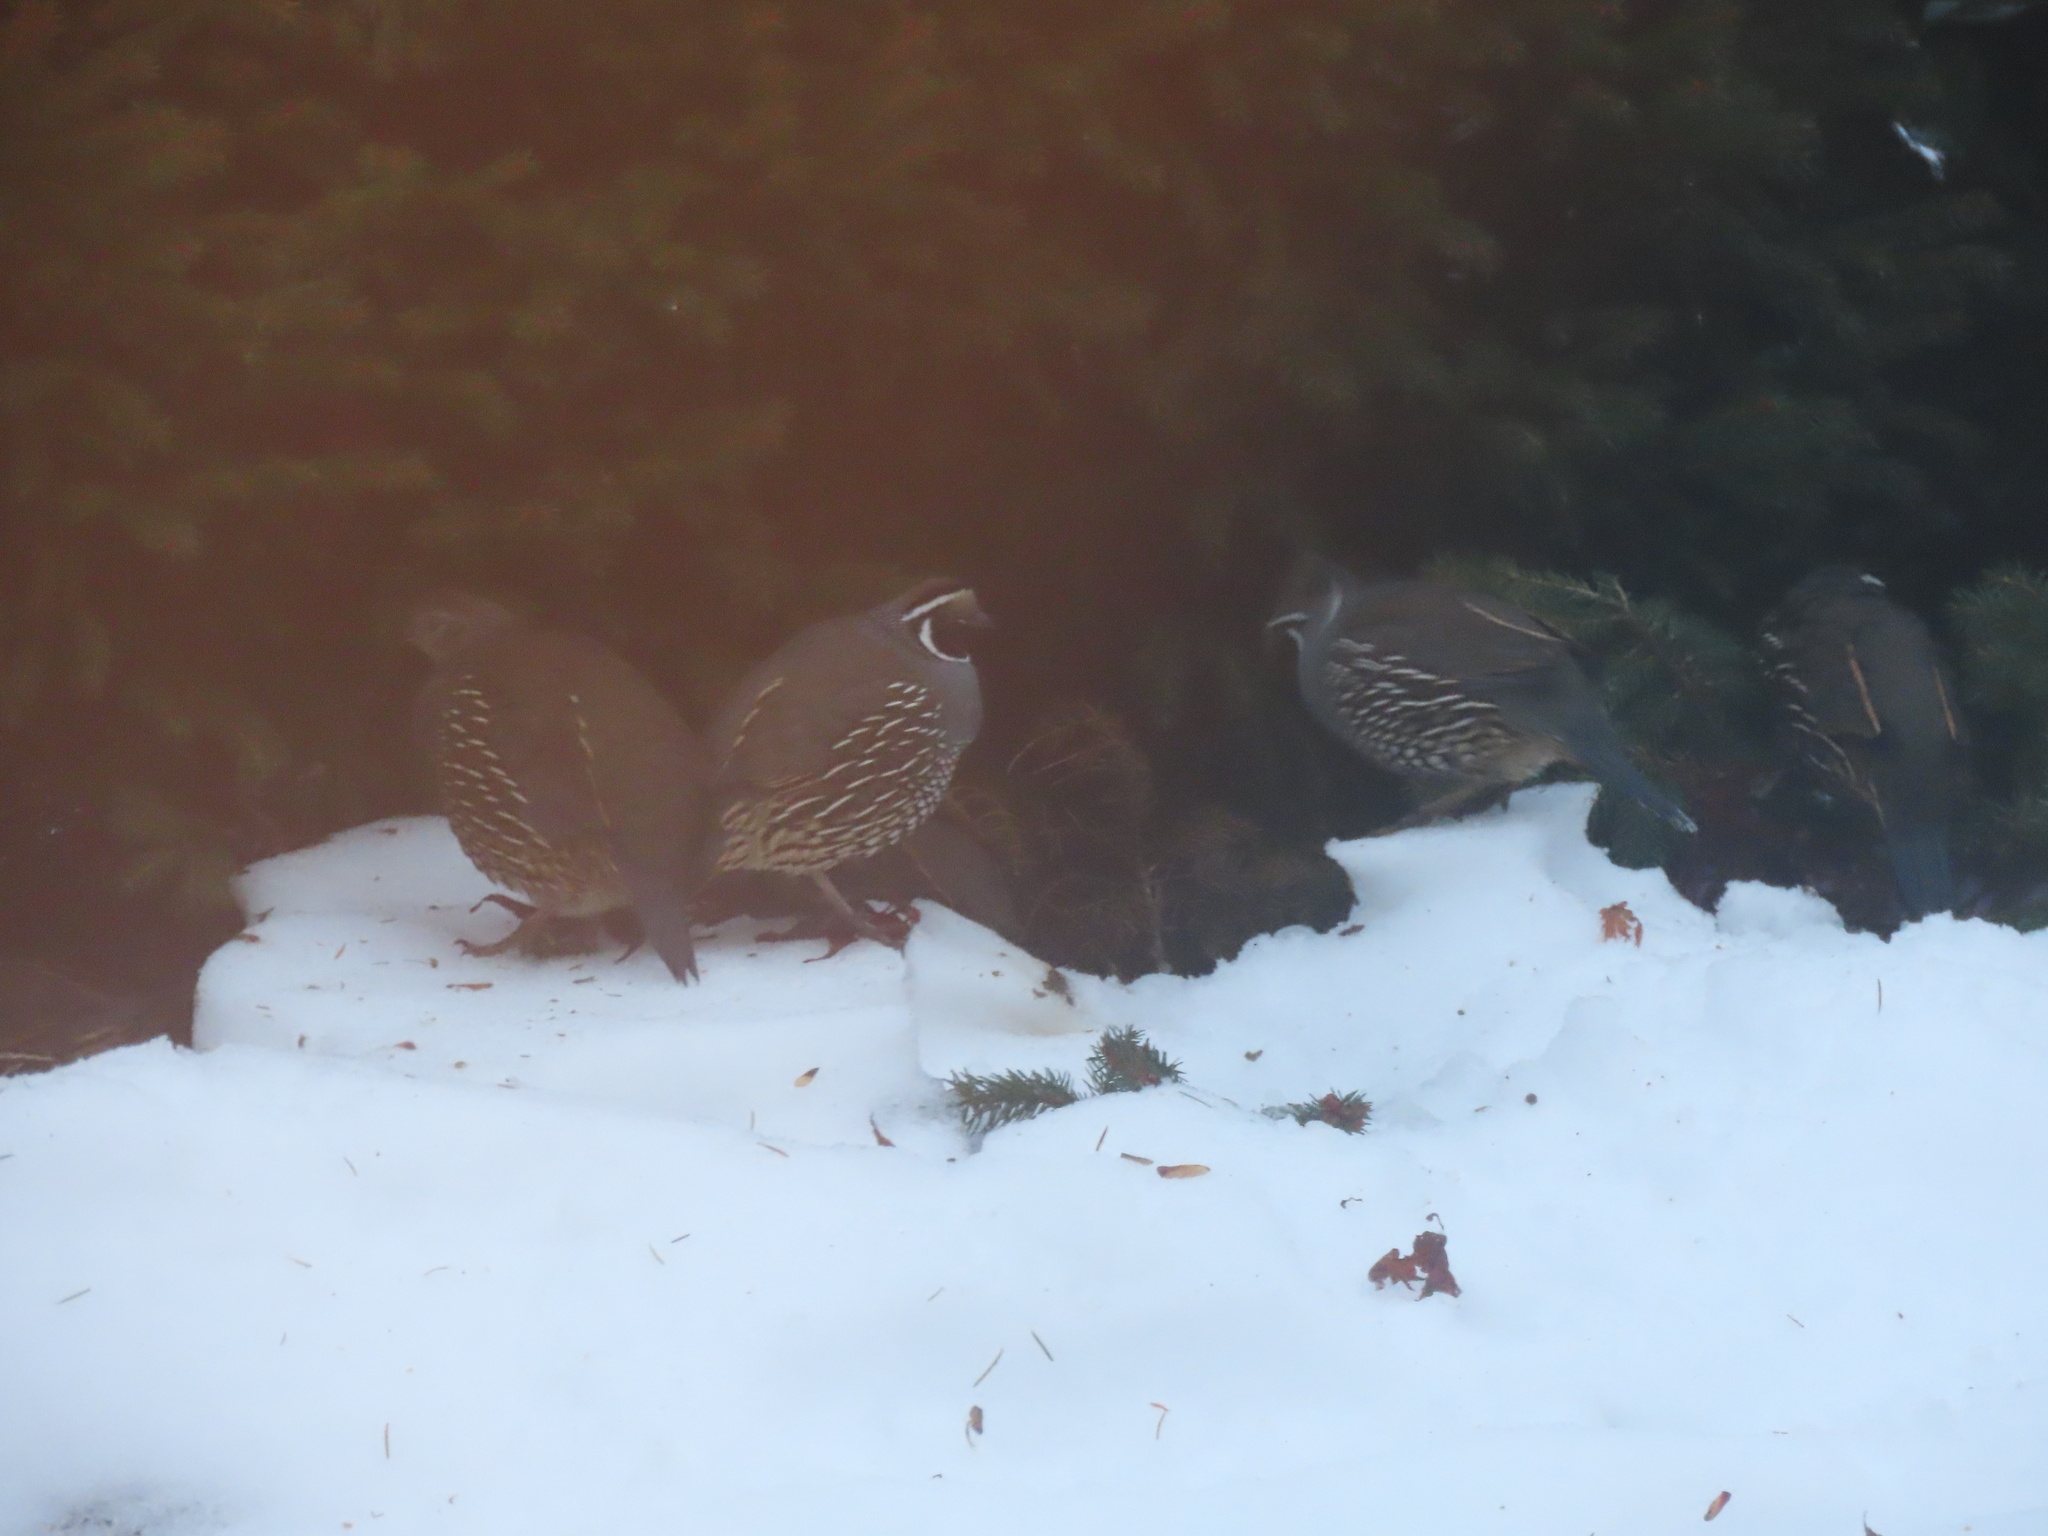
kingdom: Animalia
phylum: Chordata
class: Aves
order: Galliformes
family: Odontophoridae
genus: Callipepla
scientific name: Callipepla californica
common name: California quail
